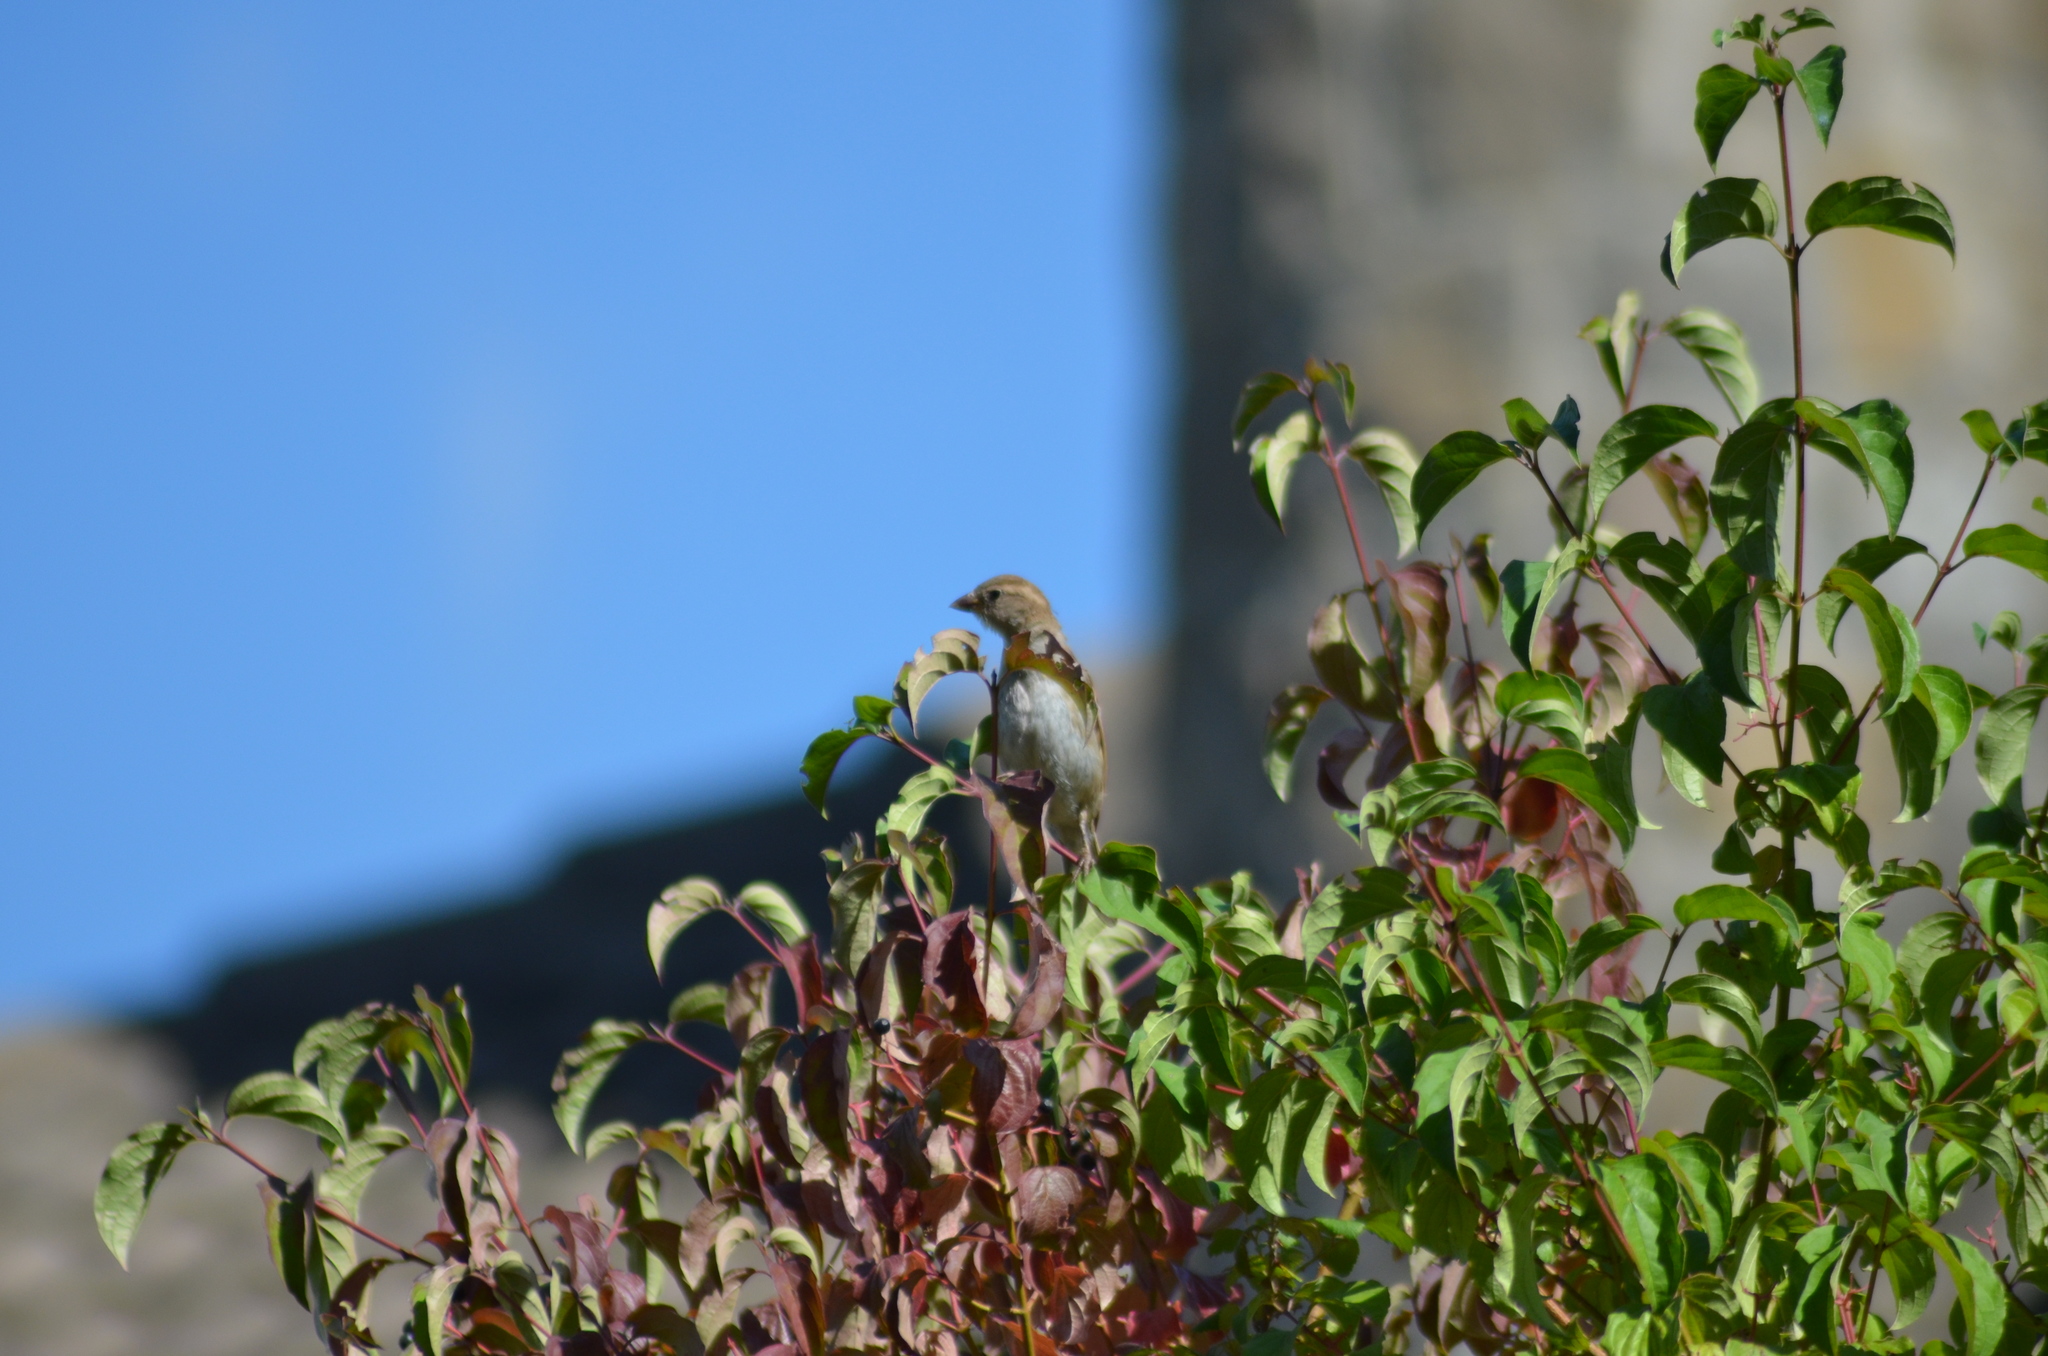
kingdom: Animalia
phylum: Chordata
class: Aves
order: Passeriformes
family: Passeridae
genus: Passer
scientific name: Passer domesticus
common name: House sparrow
